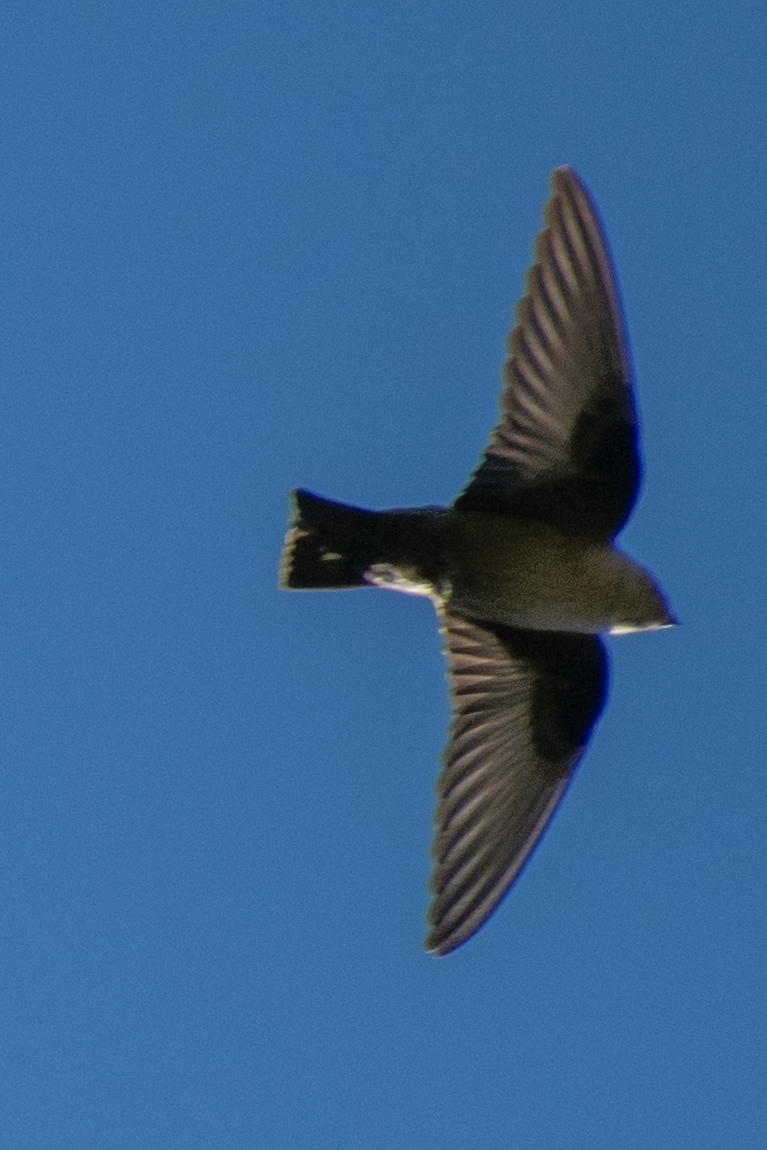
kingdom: Animalia
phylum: Chordata
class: Aves
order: Passeriformes
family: Hirundinidae
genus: Ptyonoprogne
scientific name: Ptyonoprogne rupestris
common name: Eurasian crag martin
